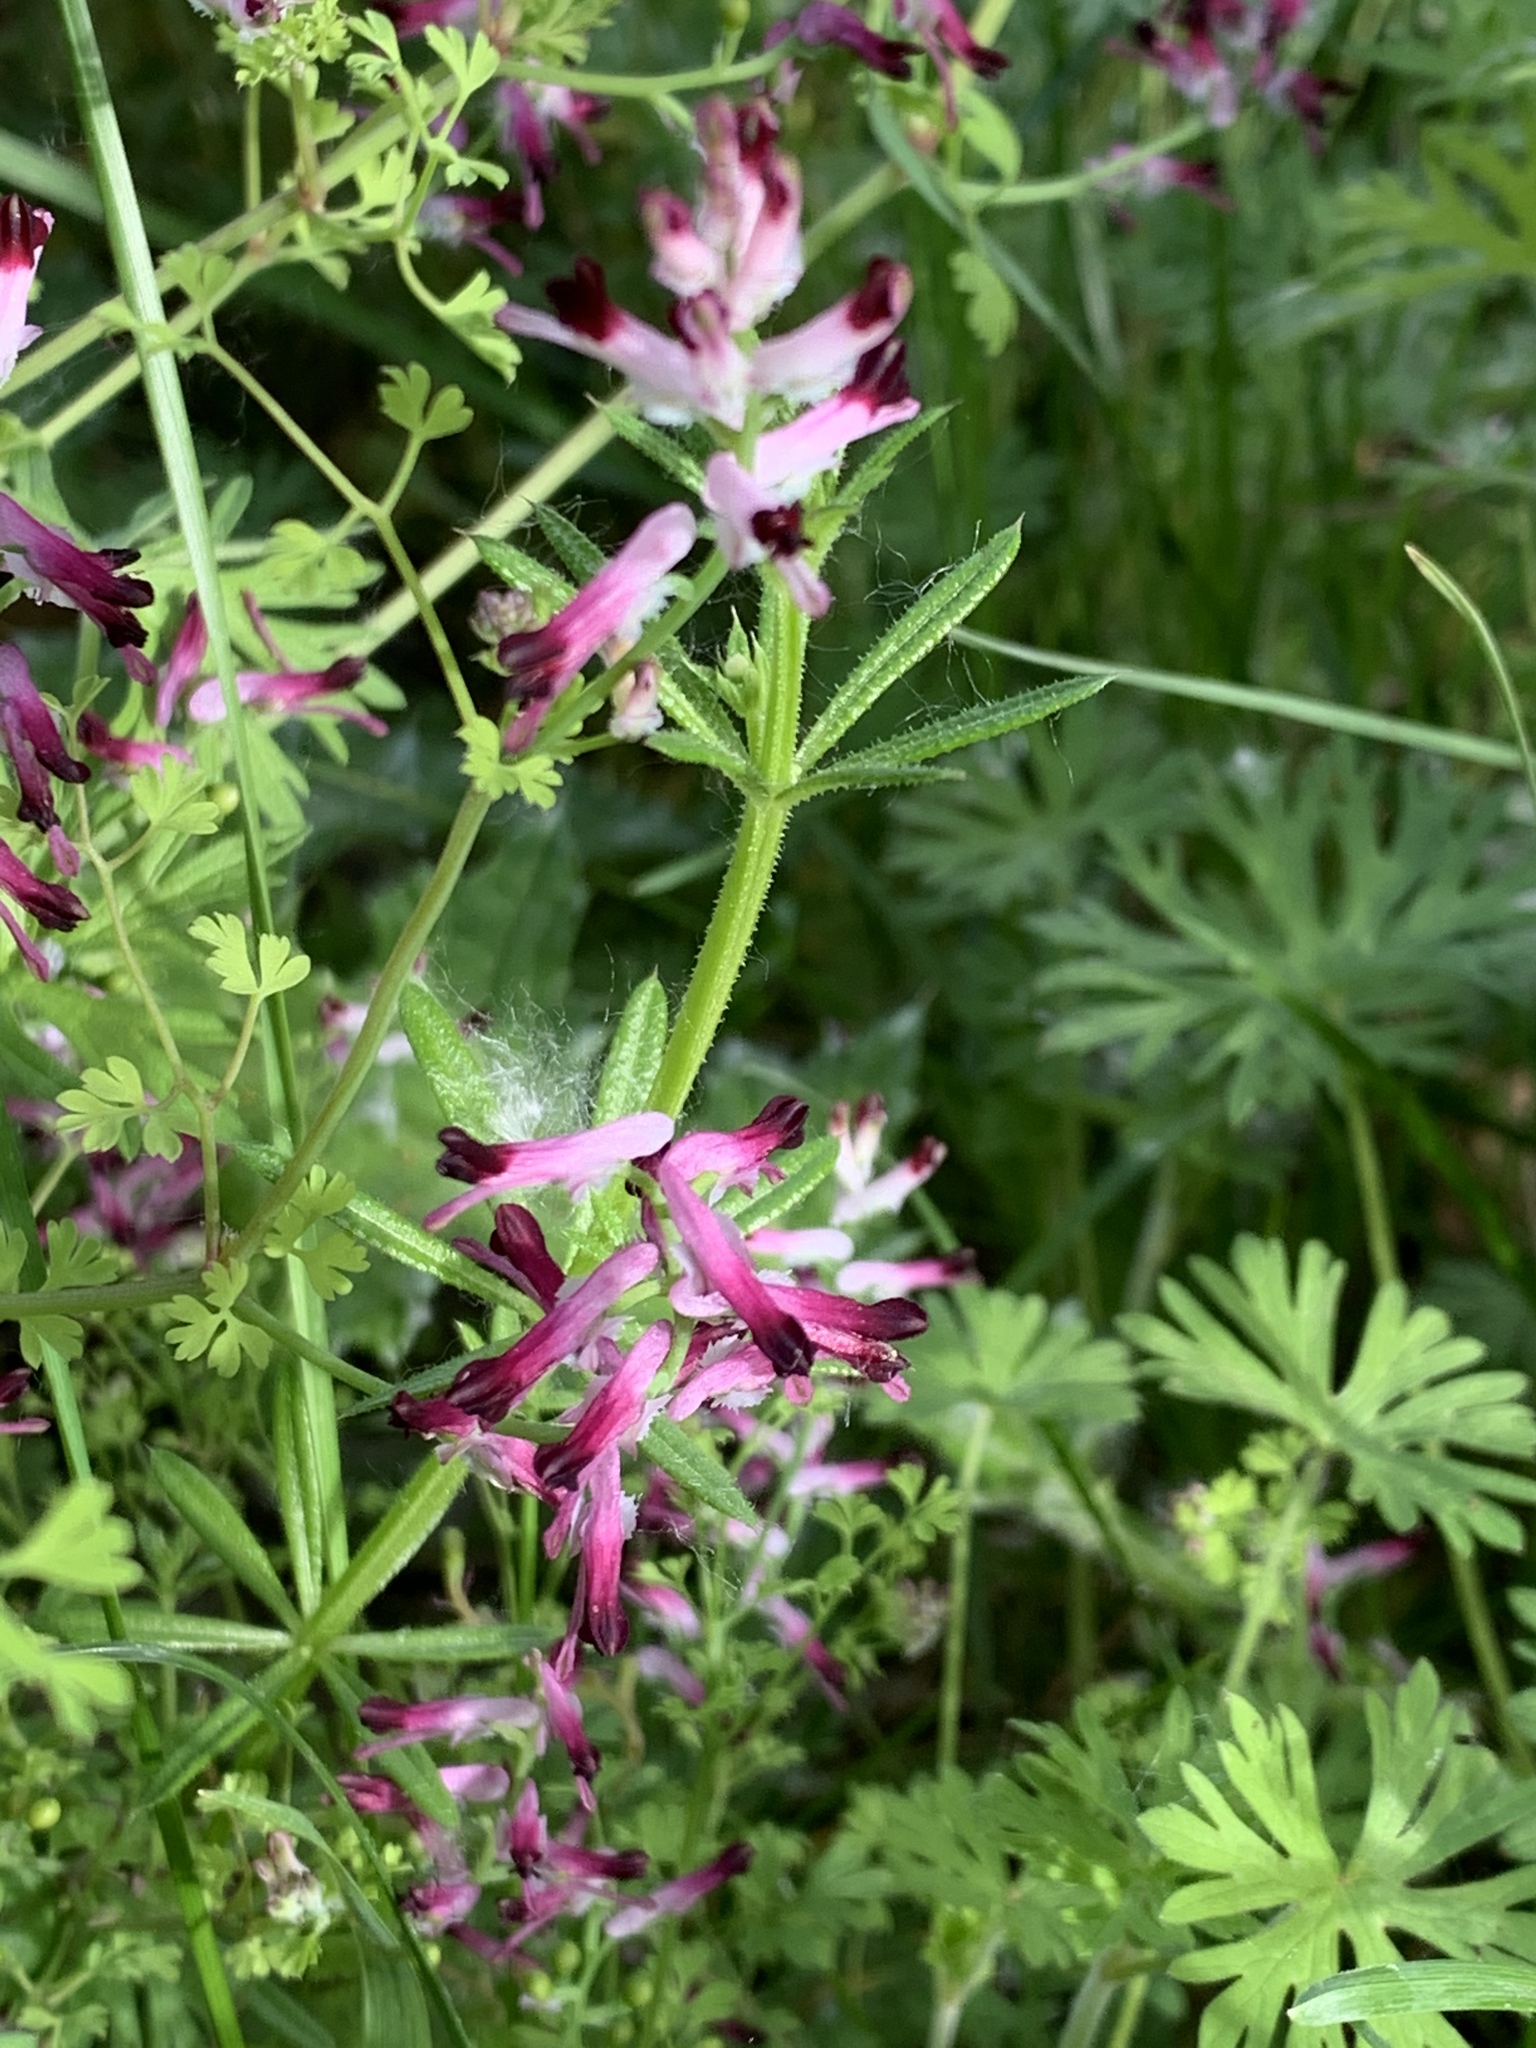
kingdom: Plantae
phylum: Tracheophyta
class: Magnoliopsida
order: Ranunculales
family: Papaveraceae
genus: Fumaria
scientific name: Fumaria muralis
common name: Common ramping-fumitory
